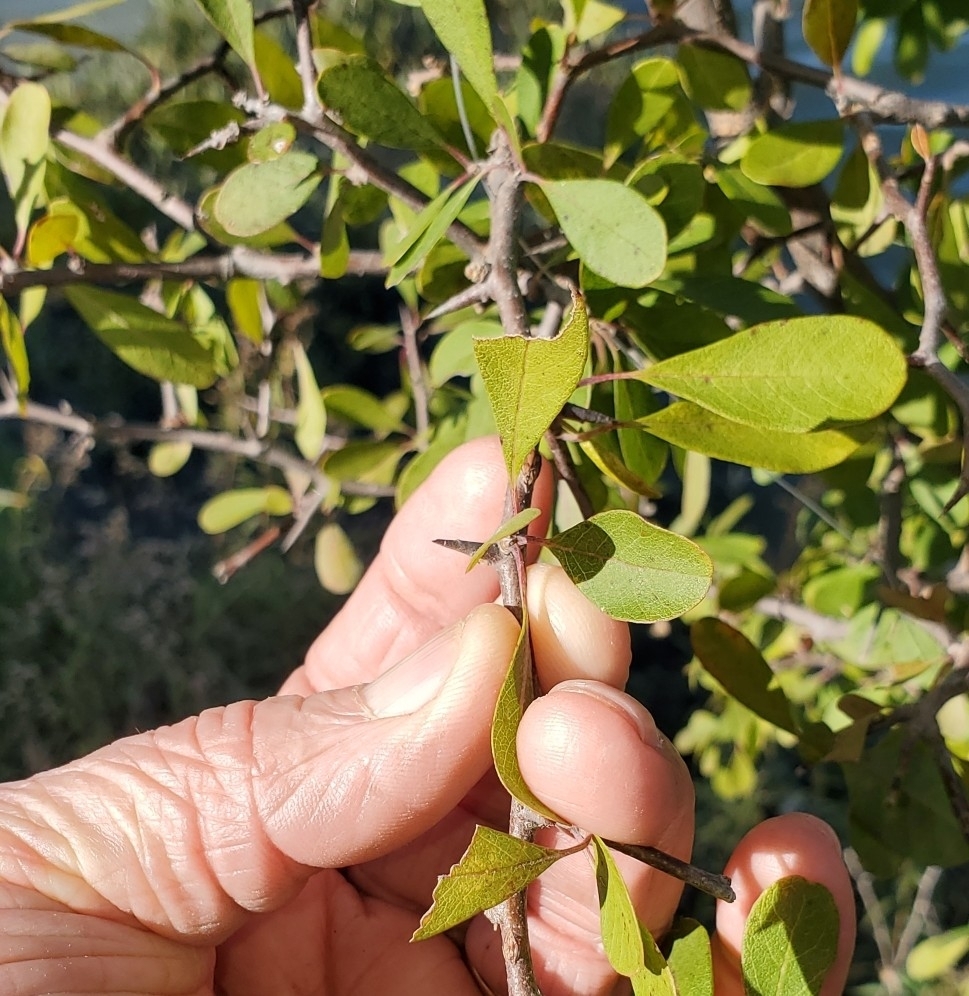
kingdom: Plantae
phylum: Tracheophyta
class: Magnoliopsida
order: Ericales
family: Sapotaceae
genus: Sideroxylon
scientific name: Sideroxylon lanuginosum
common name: Chittamwood
